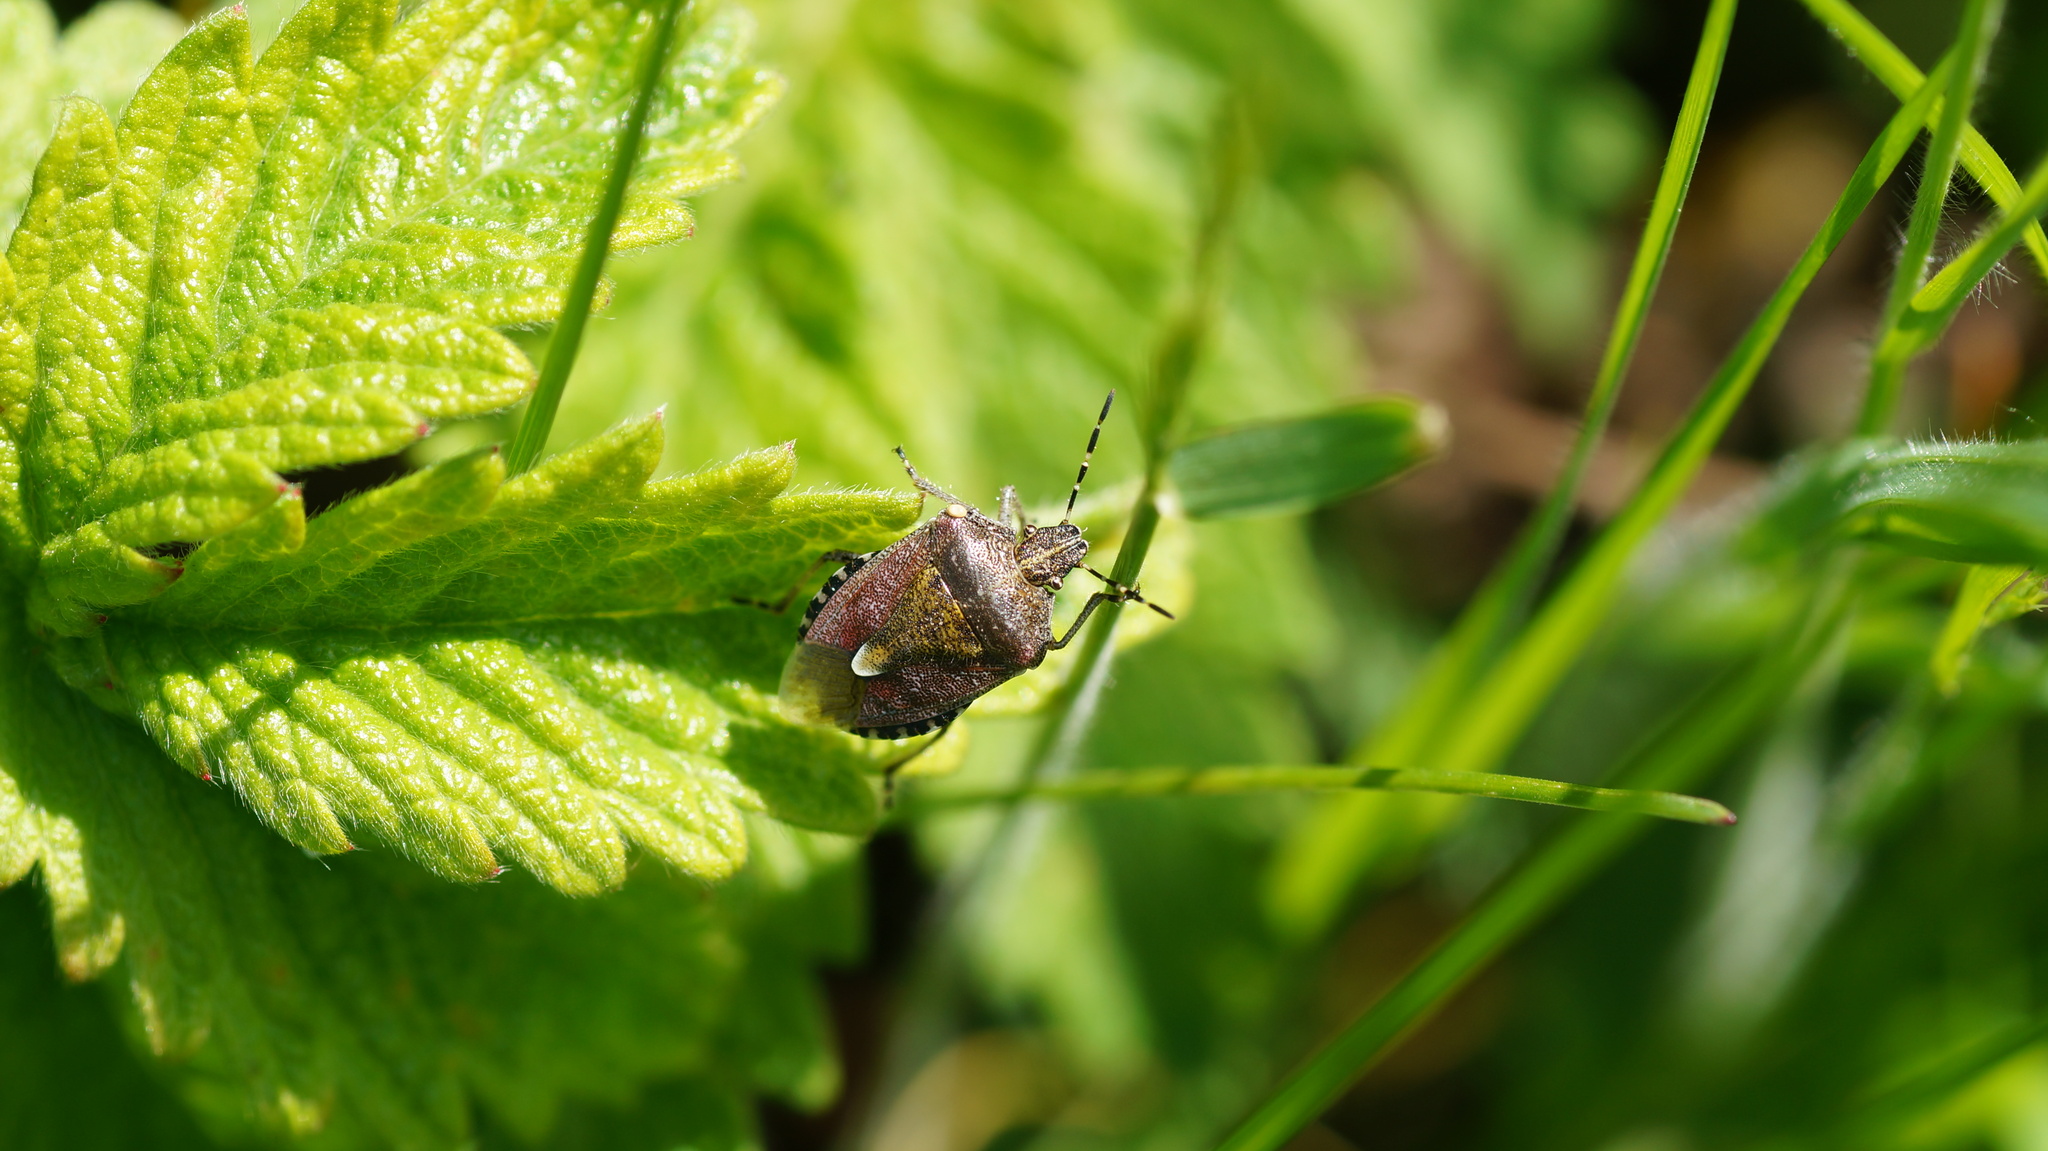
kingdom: Animalia
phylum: Arthropoda
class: Insecta
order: Hemiptera
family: Pentatomidae
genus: Dolycoris
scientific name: Dolycoris baccarum
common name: Sloe bug
